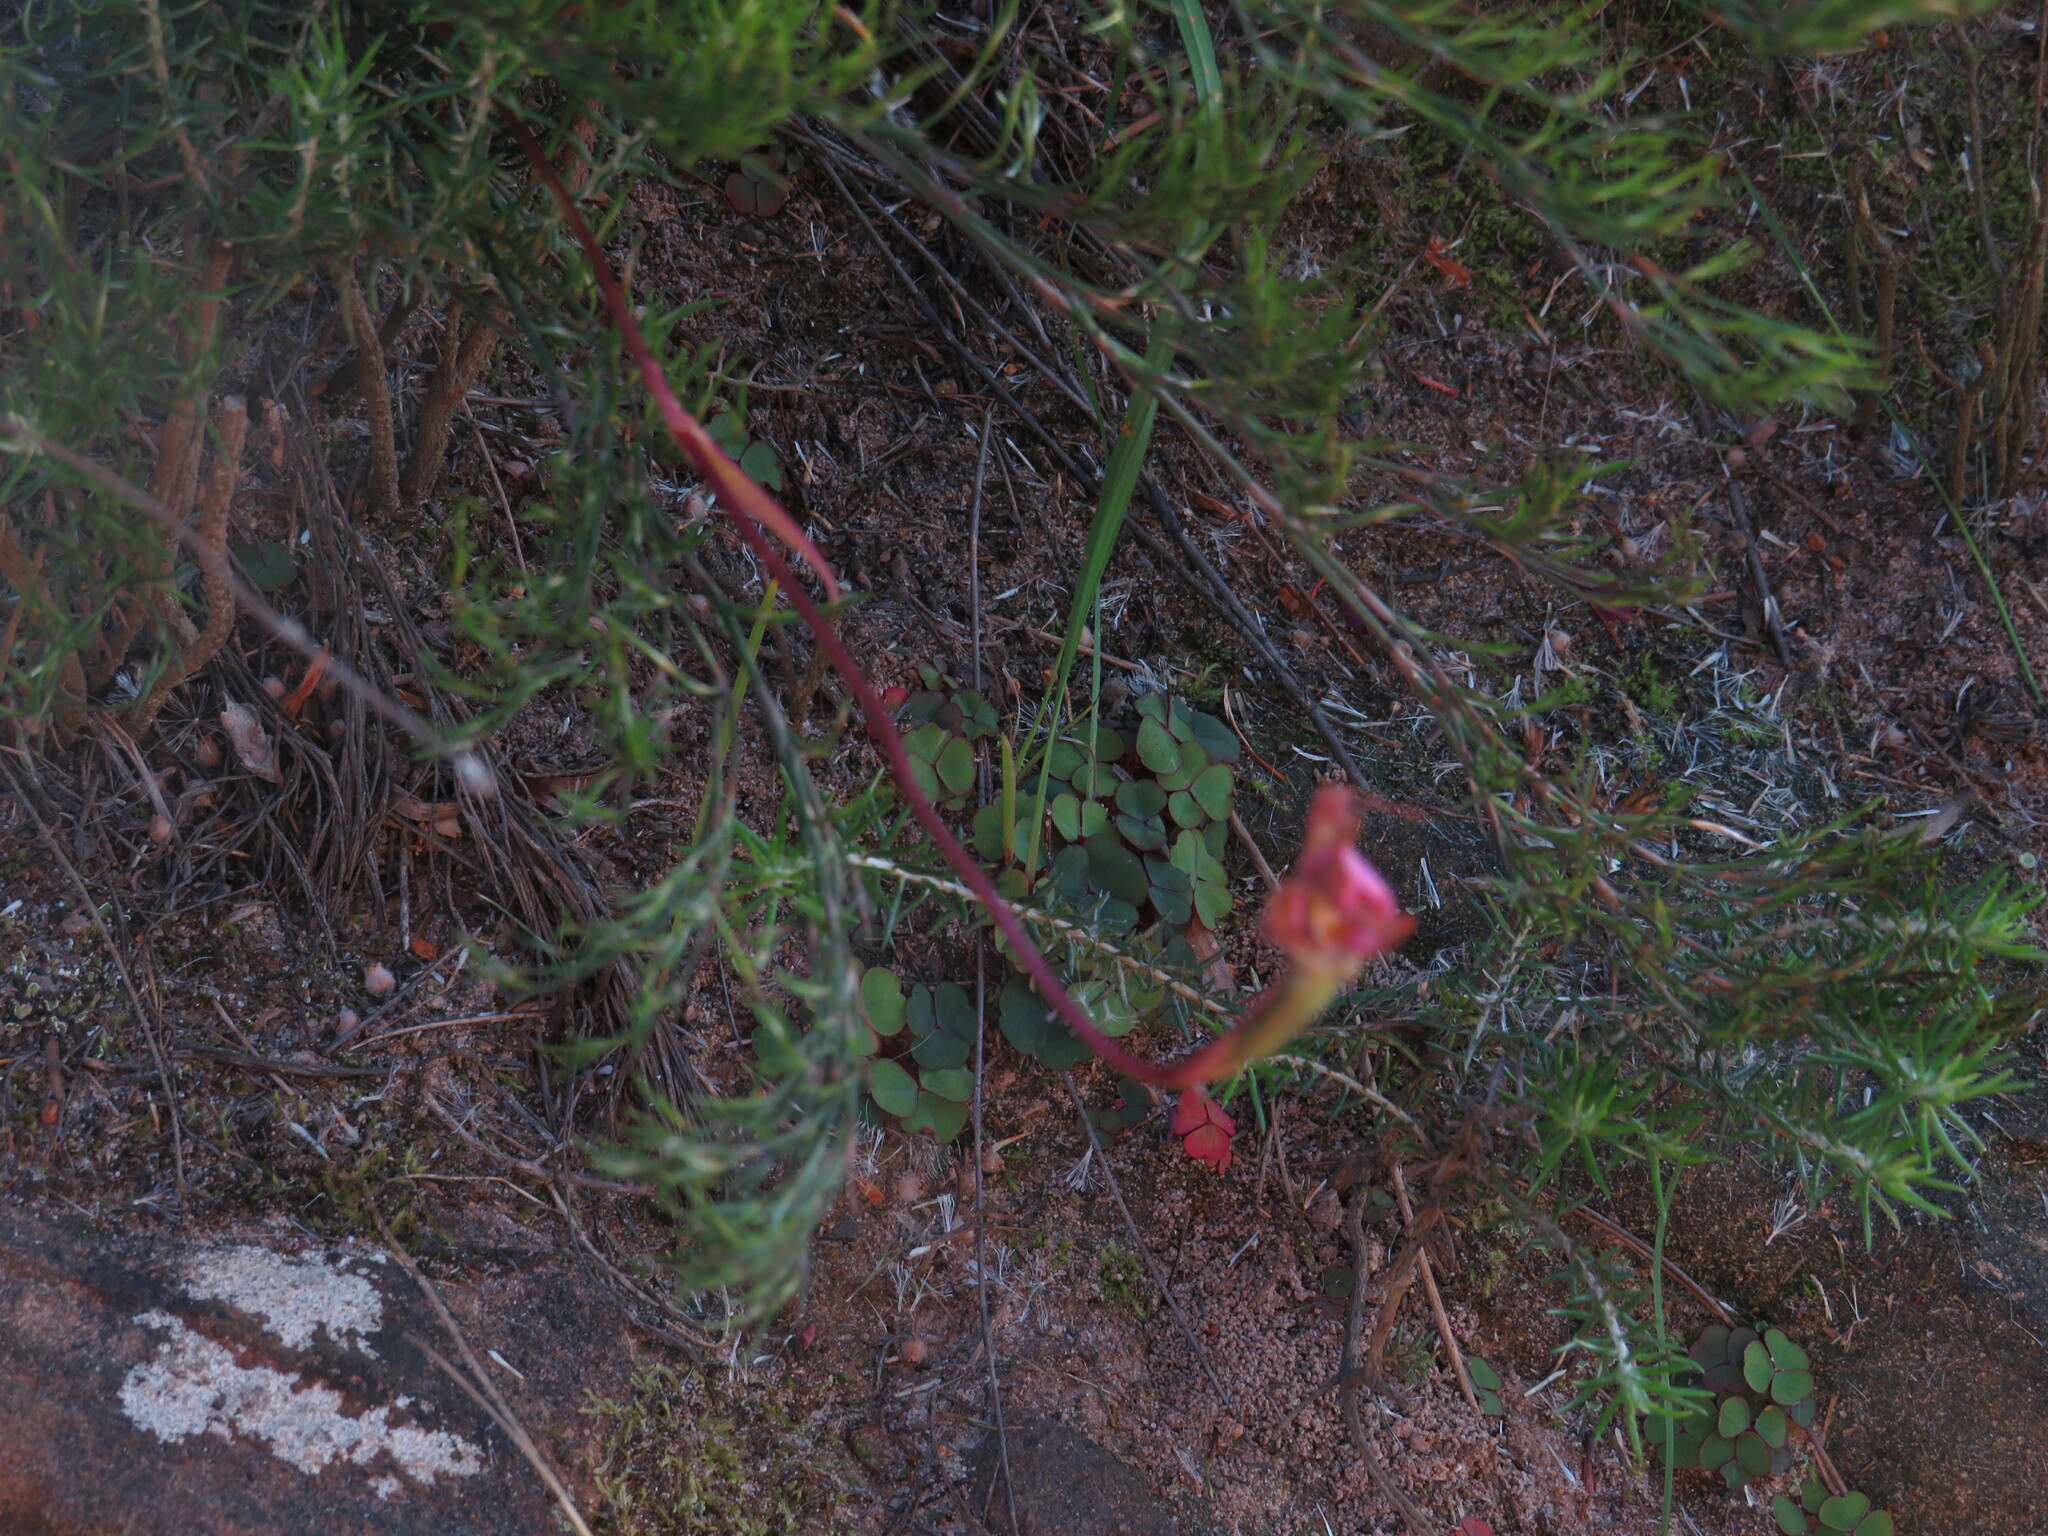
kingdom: Plantae
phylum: Tracheophyta
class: Liliopsida
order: Asparagales
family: Orchidaceae
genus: Disperis
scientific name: Disperis capensis
